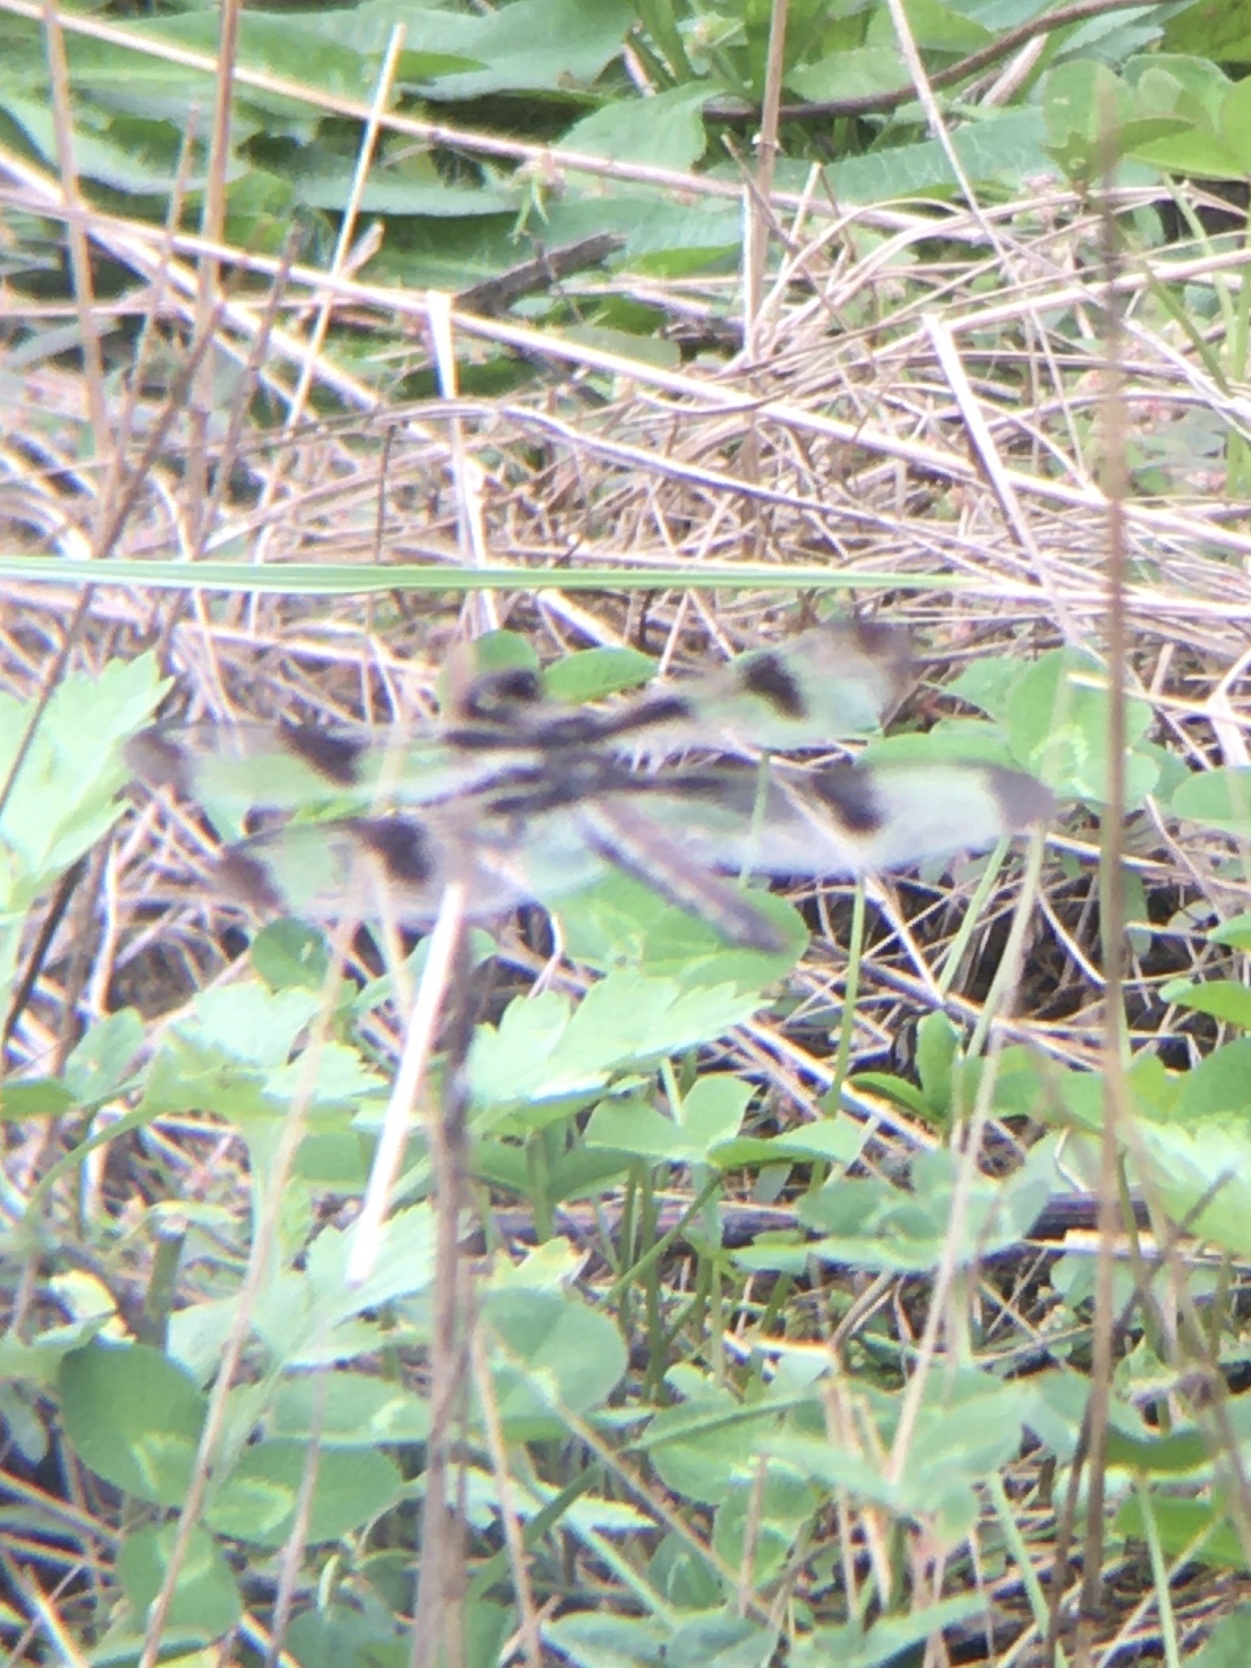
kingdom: Animalia
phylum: Arthropoda
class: Insecta
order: Odonata
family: Libellulidae
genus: Libellula
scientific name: Libellula pulchella
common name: Twelve-spotted skimmer
